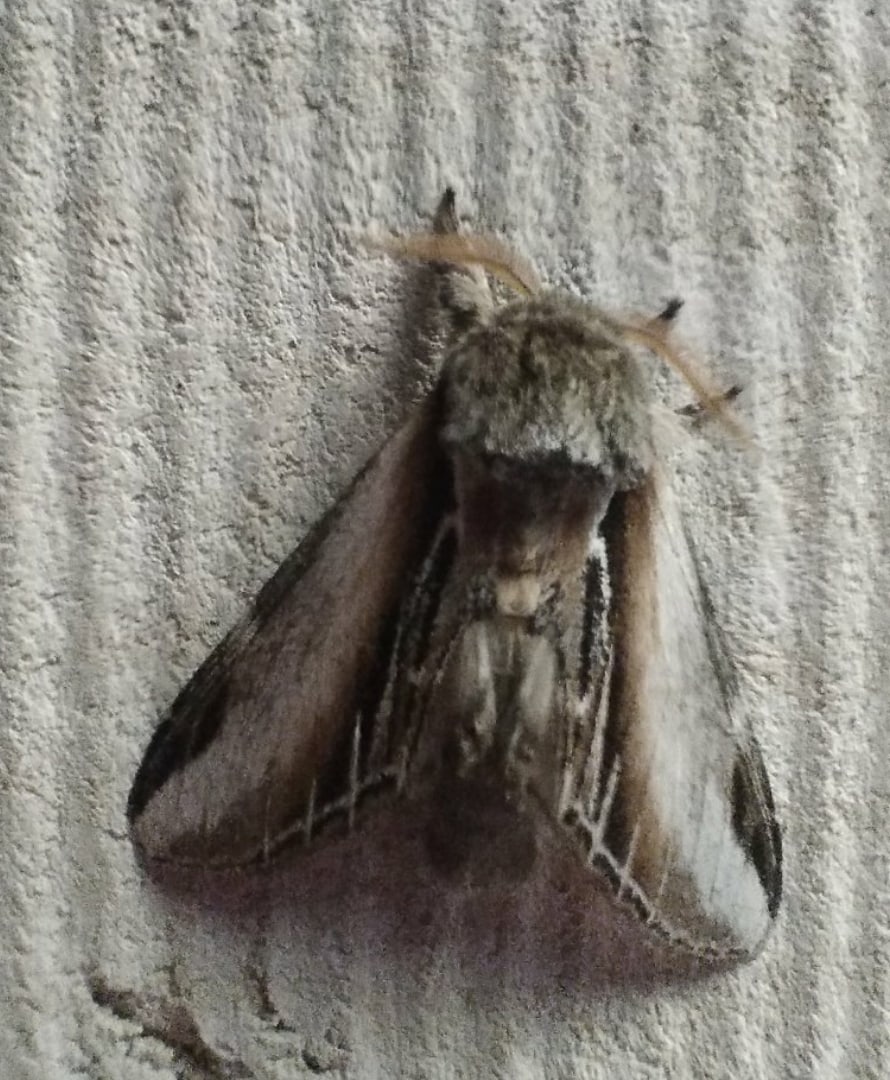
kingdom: Animalia
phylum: Arthropoda
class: Insecta
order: Lepidoptera
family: Notodontidae
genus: Pheosia
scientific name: Pheosia tremula
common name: Swallow prominent
